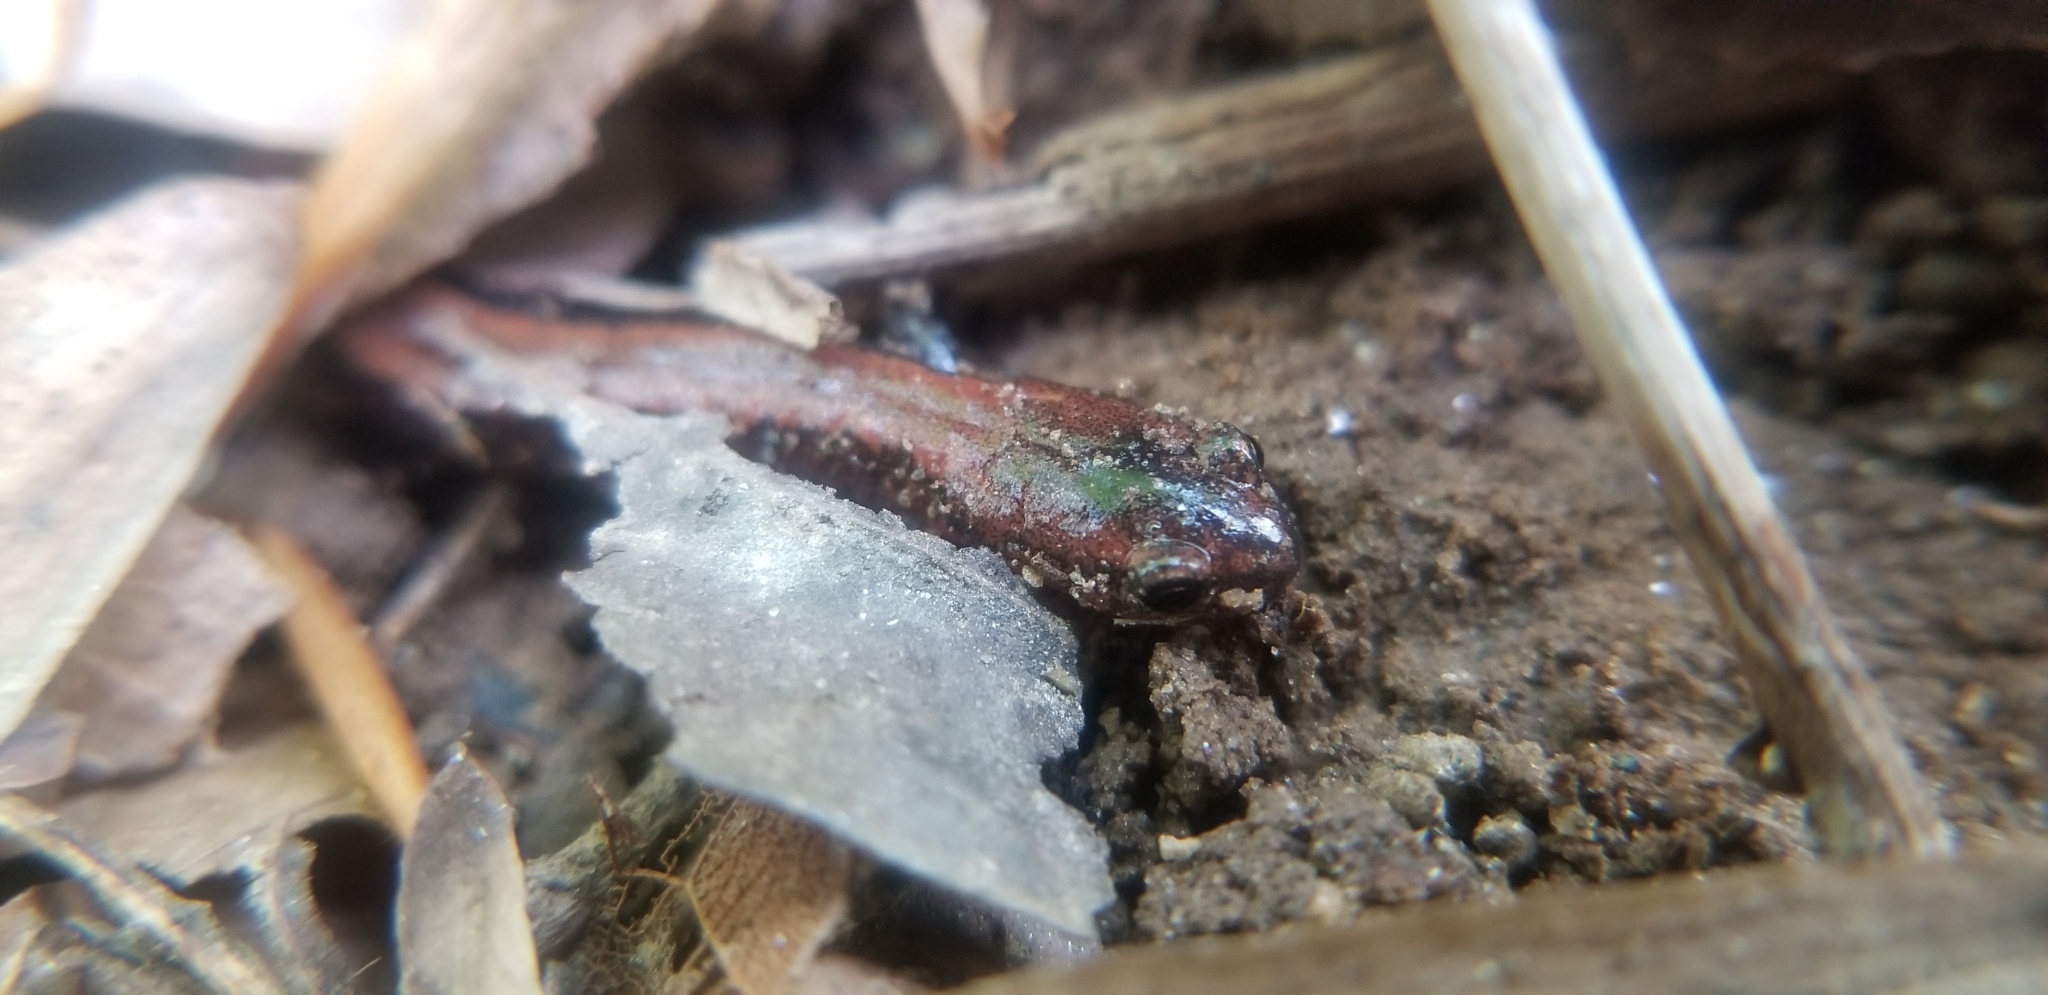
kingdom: Animalia
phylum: Chordata
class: Amphibia
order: Caudata
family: Plethodontidae
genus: Plethodon
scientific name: Plethodon cinereus
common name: Redback salamander
